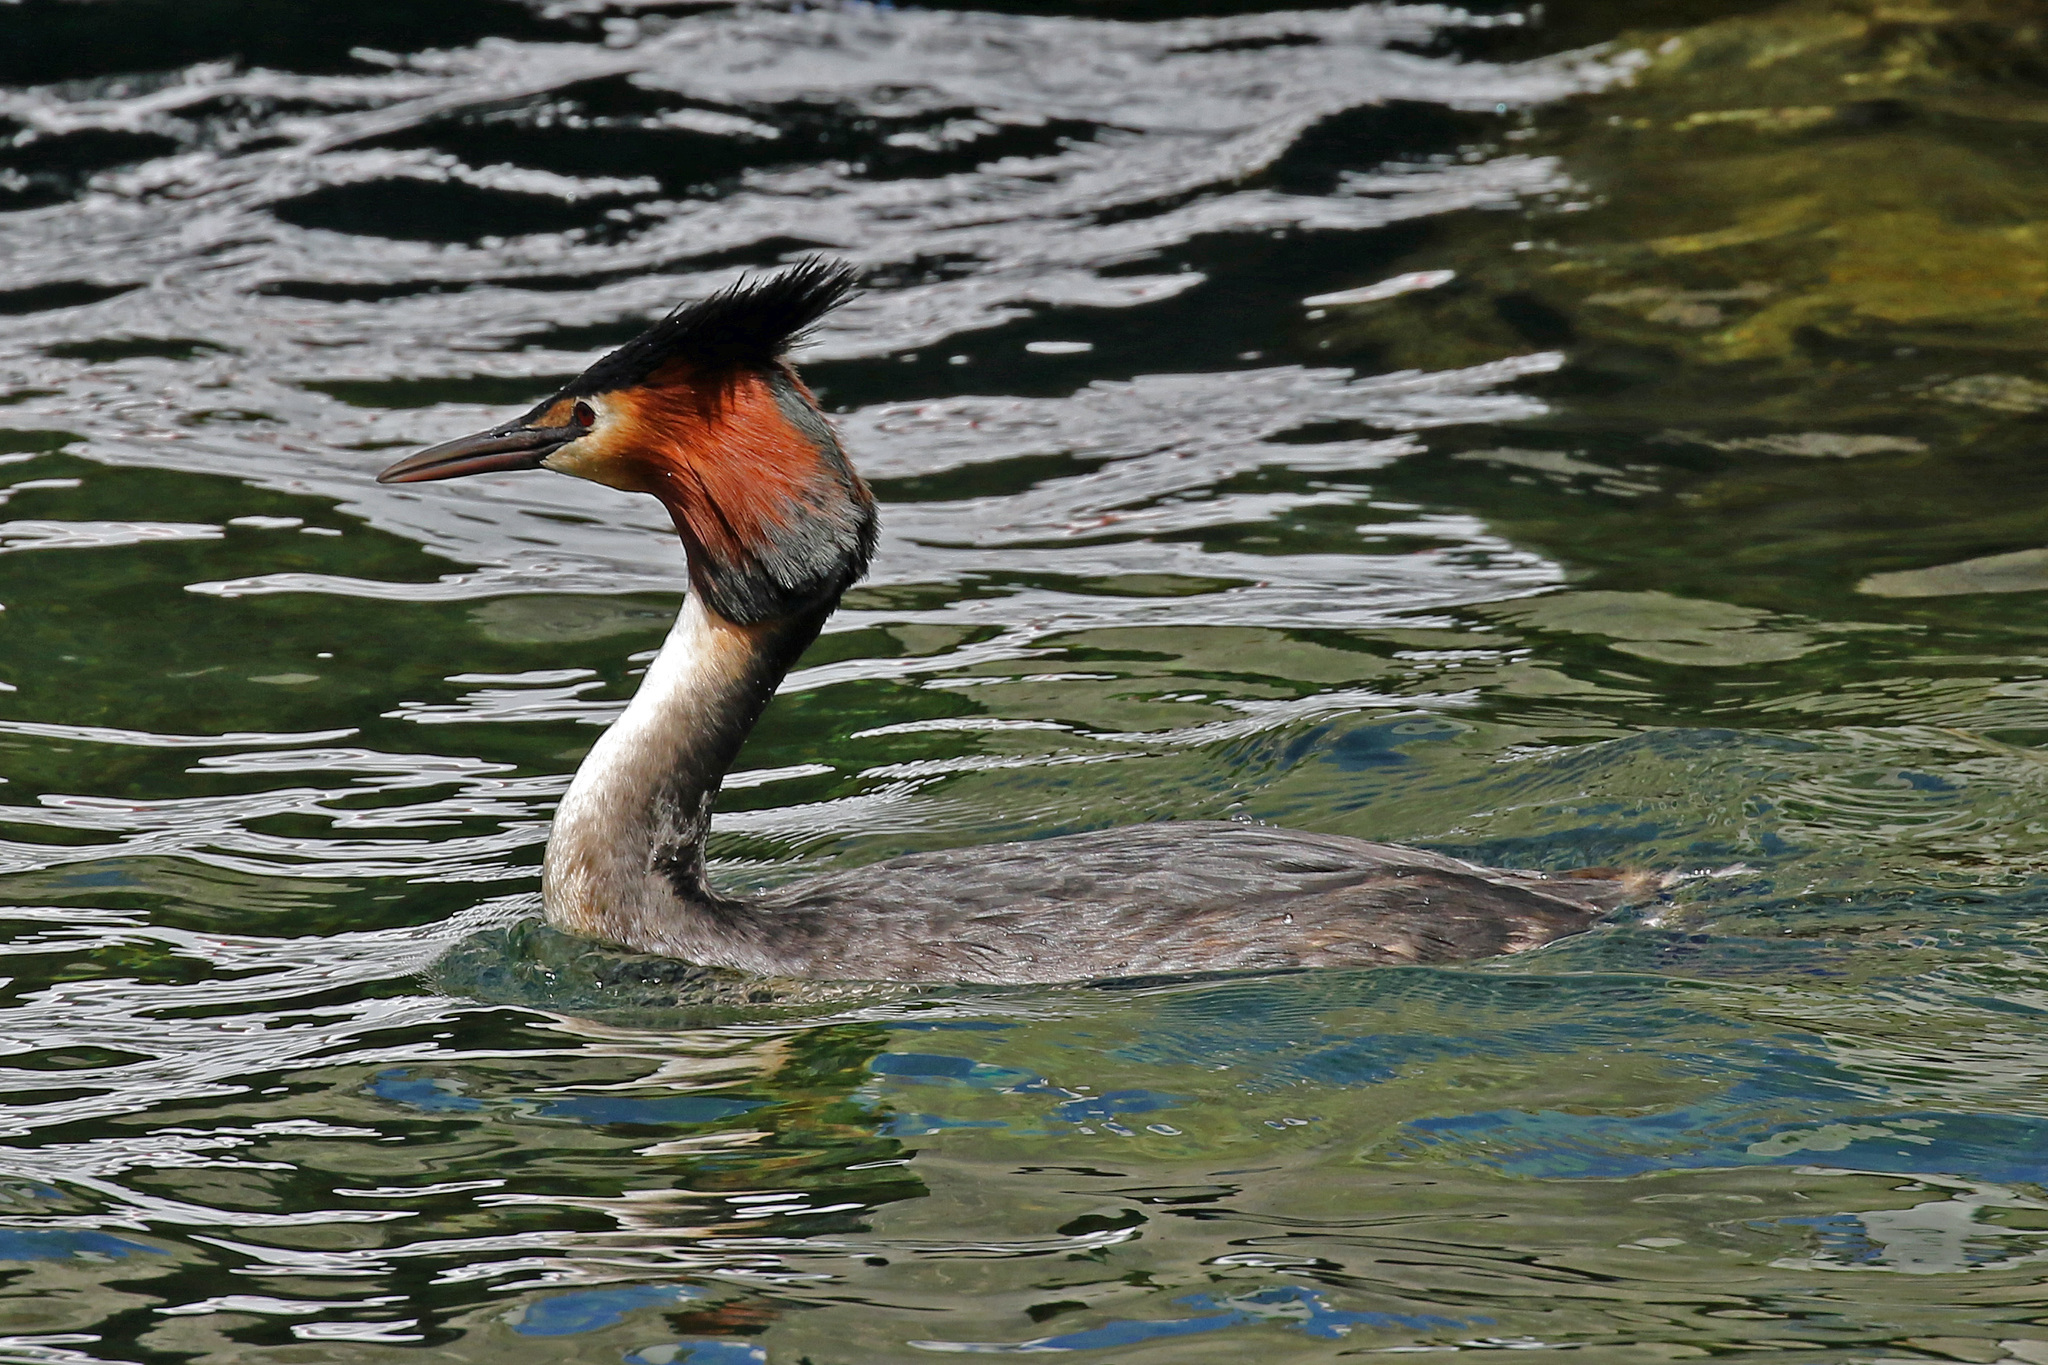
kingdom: Animalia
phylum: Chordata
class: Aves
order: Podicipediformes
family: Podicipedidae
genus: Podiceps
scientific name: Podiceps cristatus
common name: Great crested grebe
